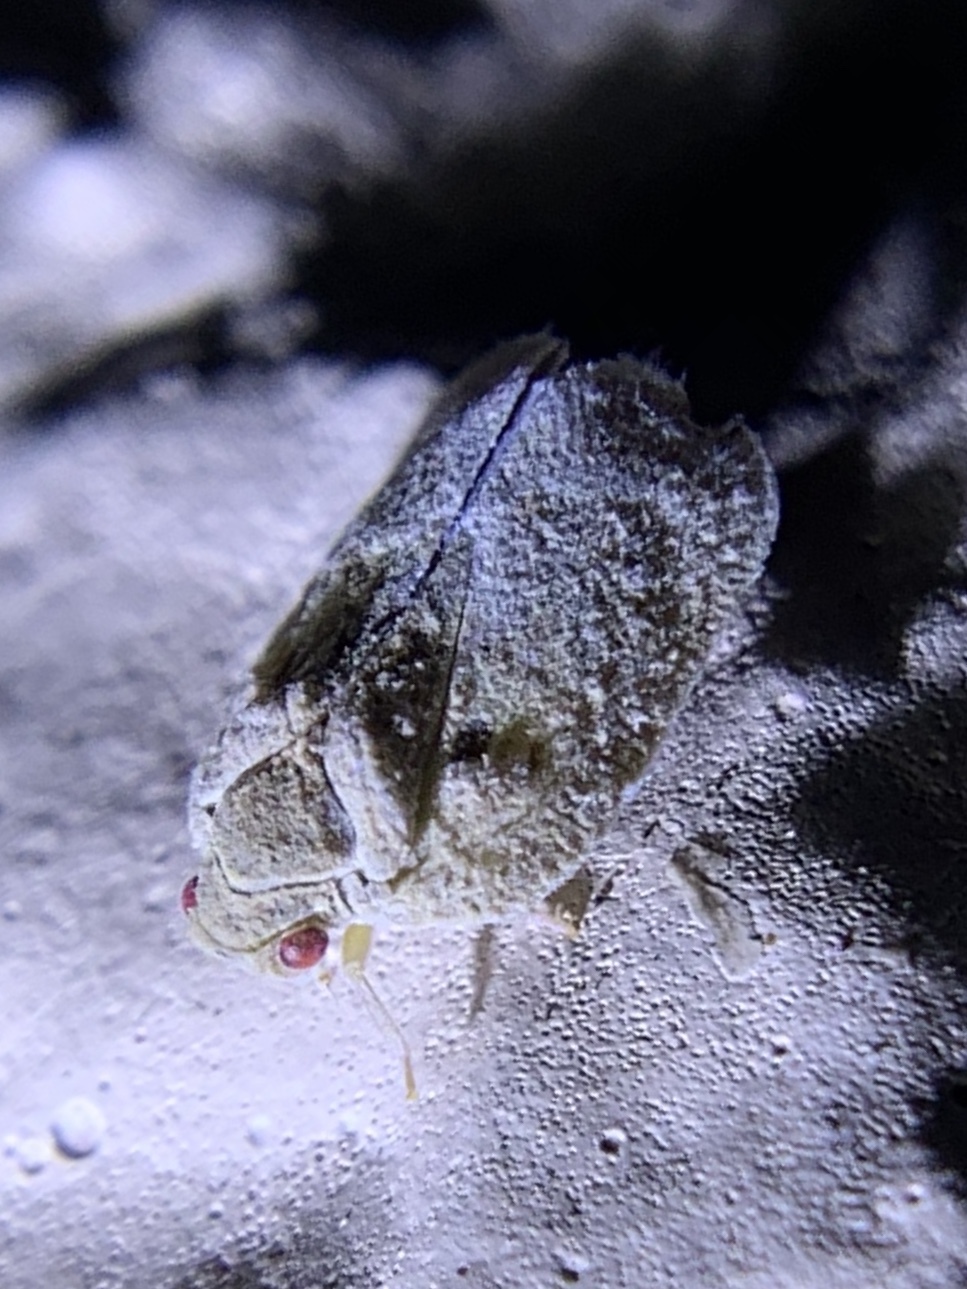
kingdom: Animalia
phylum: Arthropoda
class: Insecta
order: Hemiptera
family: Flatidae
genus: Melormenis
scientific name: Melormenis basalis
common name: Puerto rican planthopper
